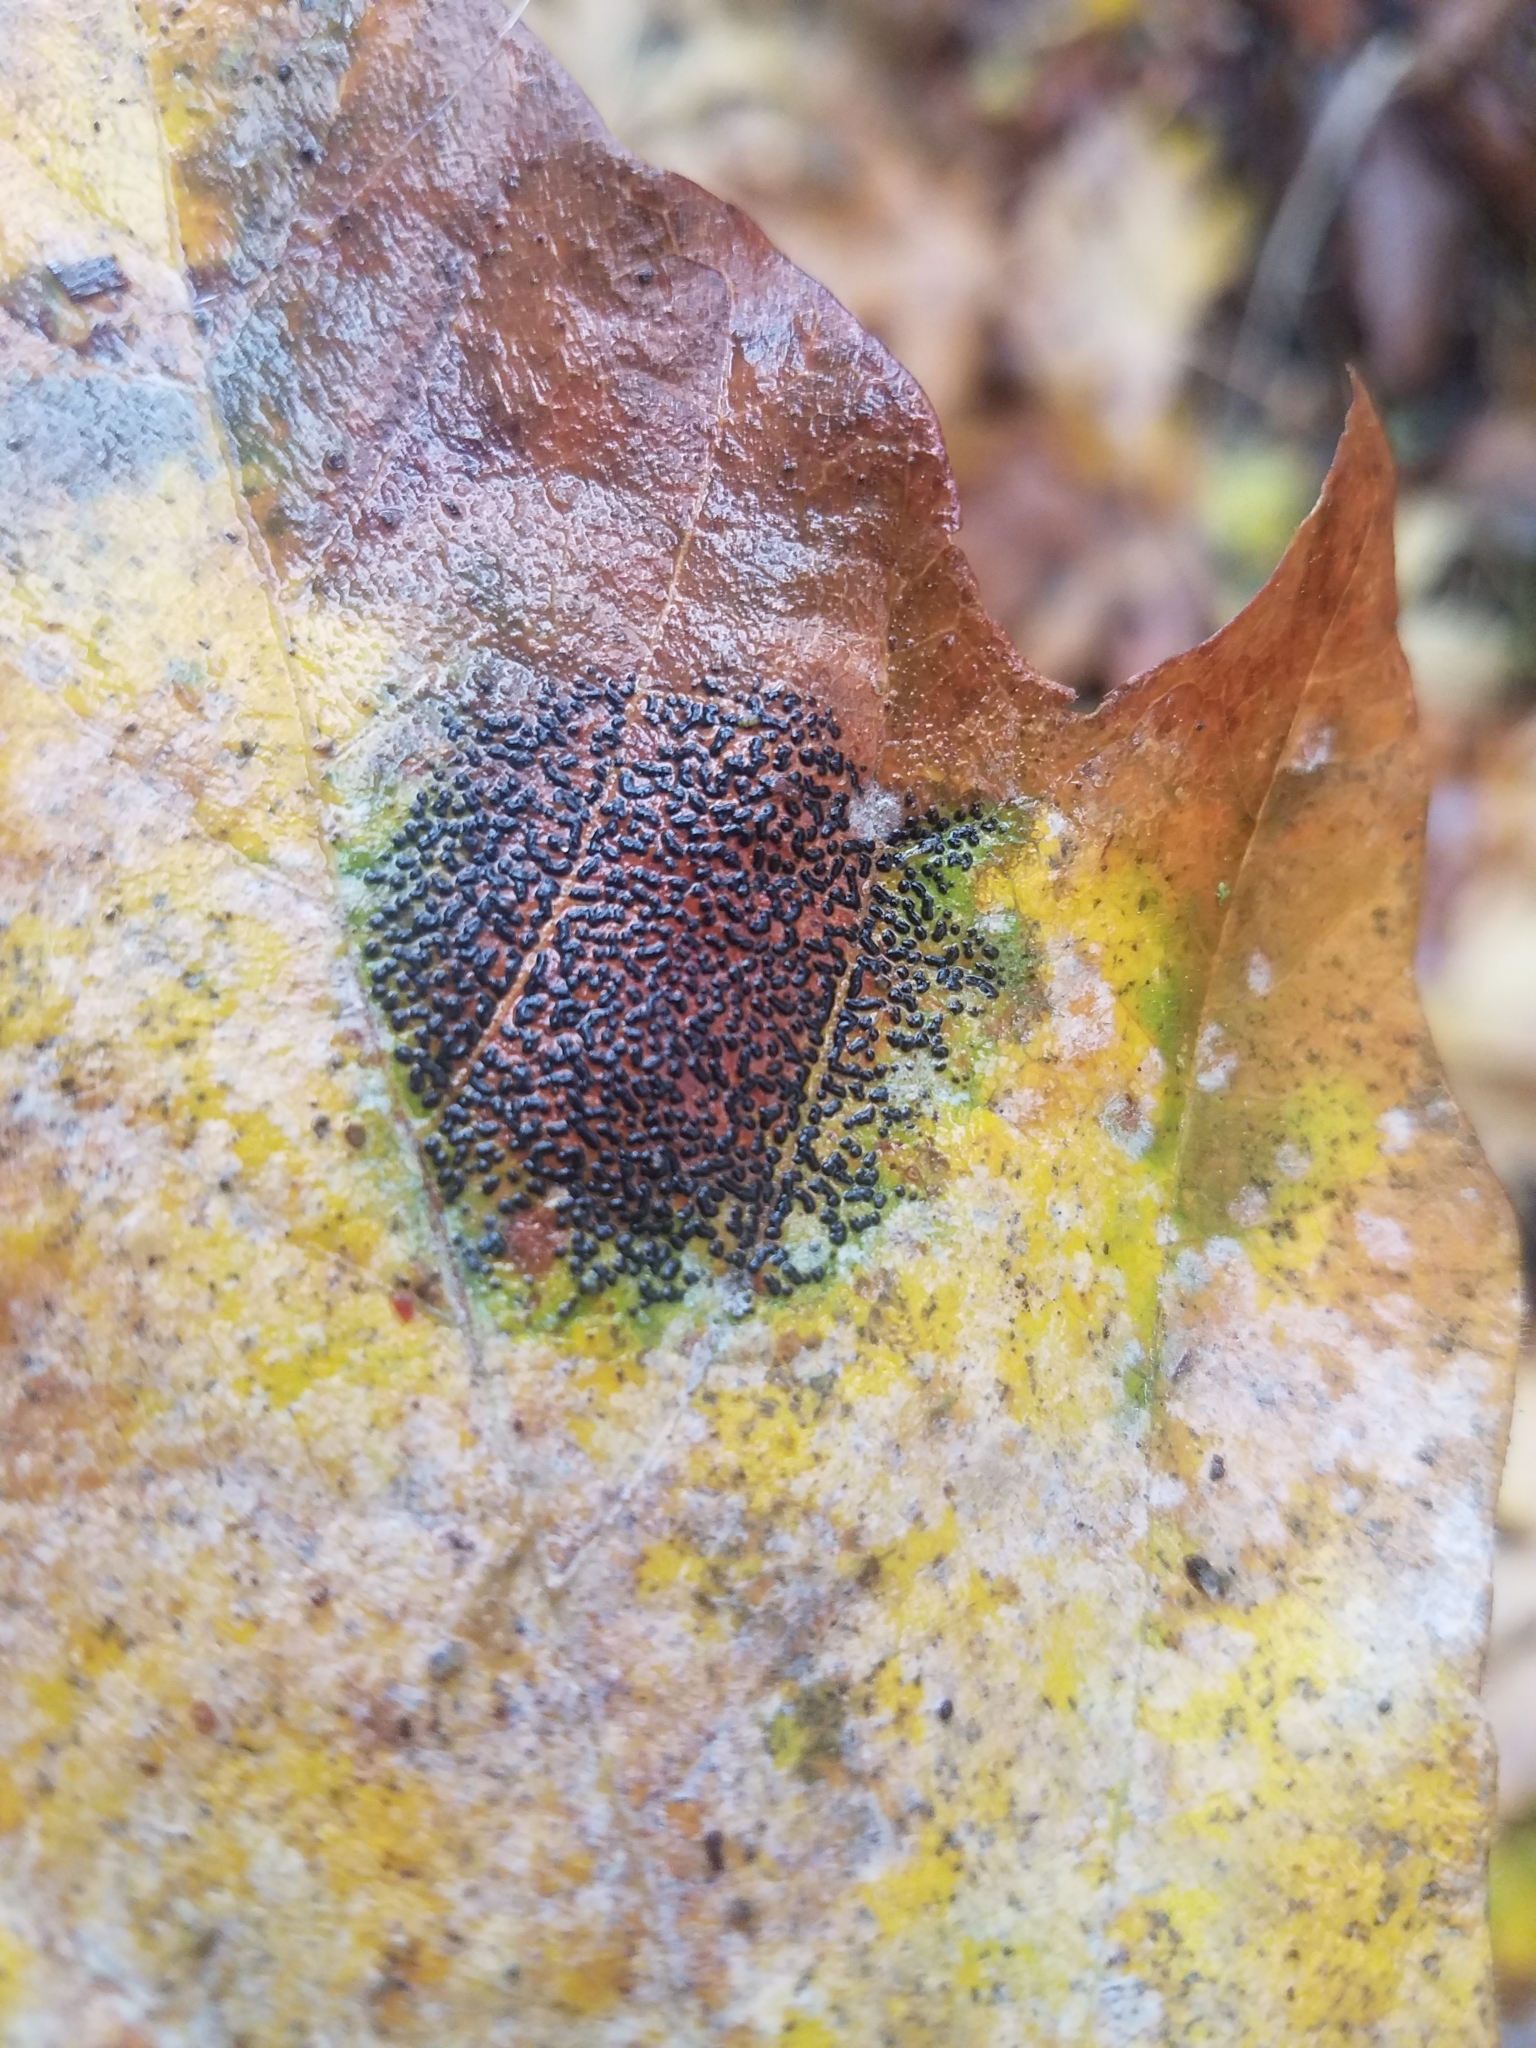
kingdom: Fungi
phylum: Ascomycota
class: Leotiomycetes
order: Rhytismatales
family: Rhytismataceae
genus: Rhytisma
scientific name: Rhytisma punctatum
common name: Speckled tar spot
